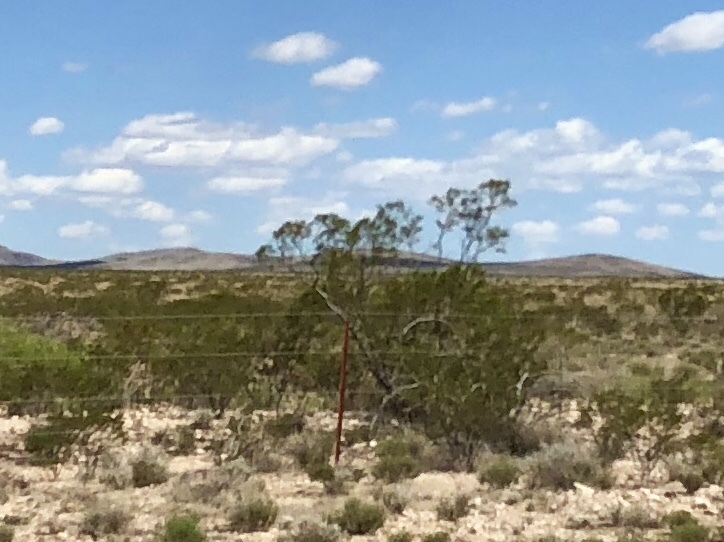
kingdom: Plantae
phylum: Tracheophyta
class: Magnoliopsida
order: Zygophyllales
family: Zygophyllaceae
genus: Larrea
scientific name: Larrea tridentata
